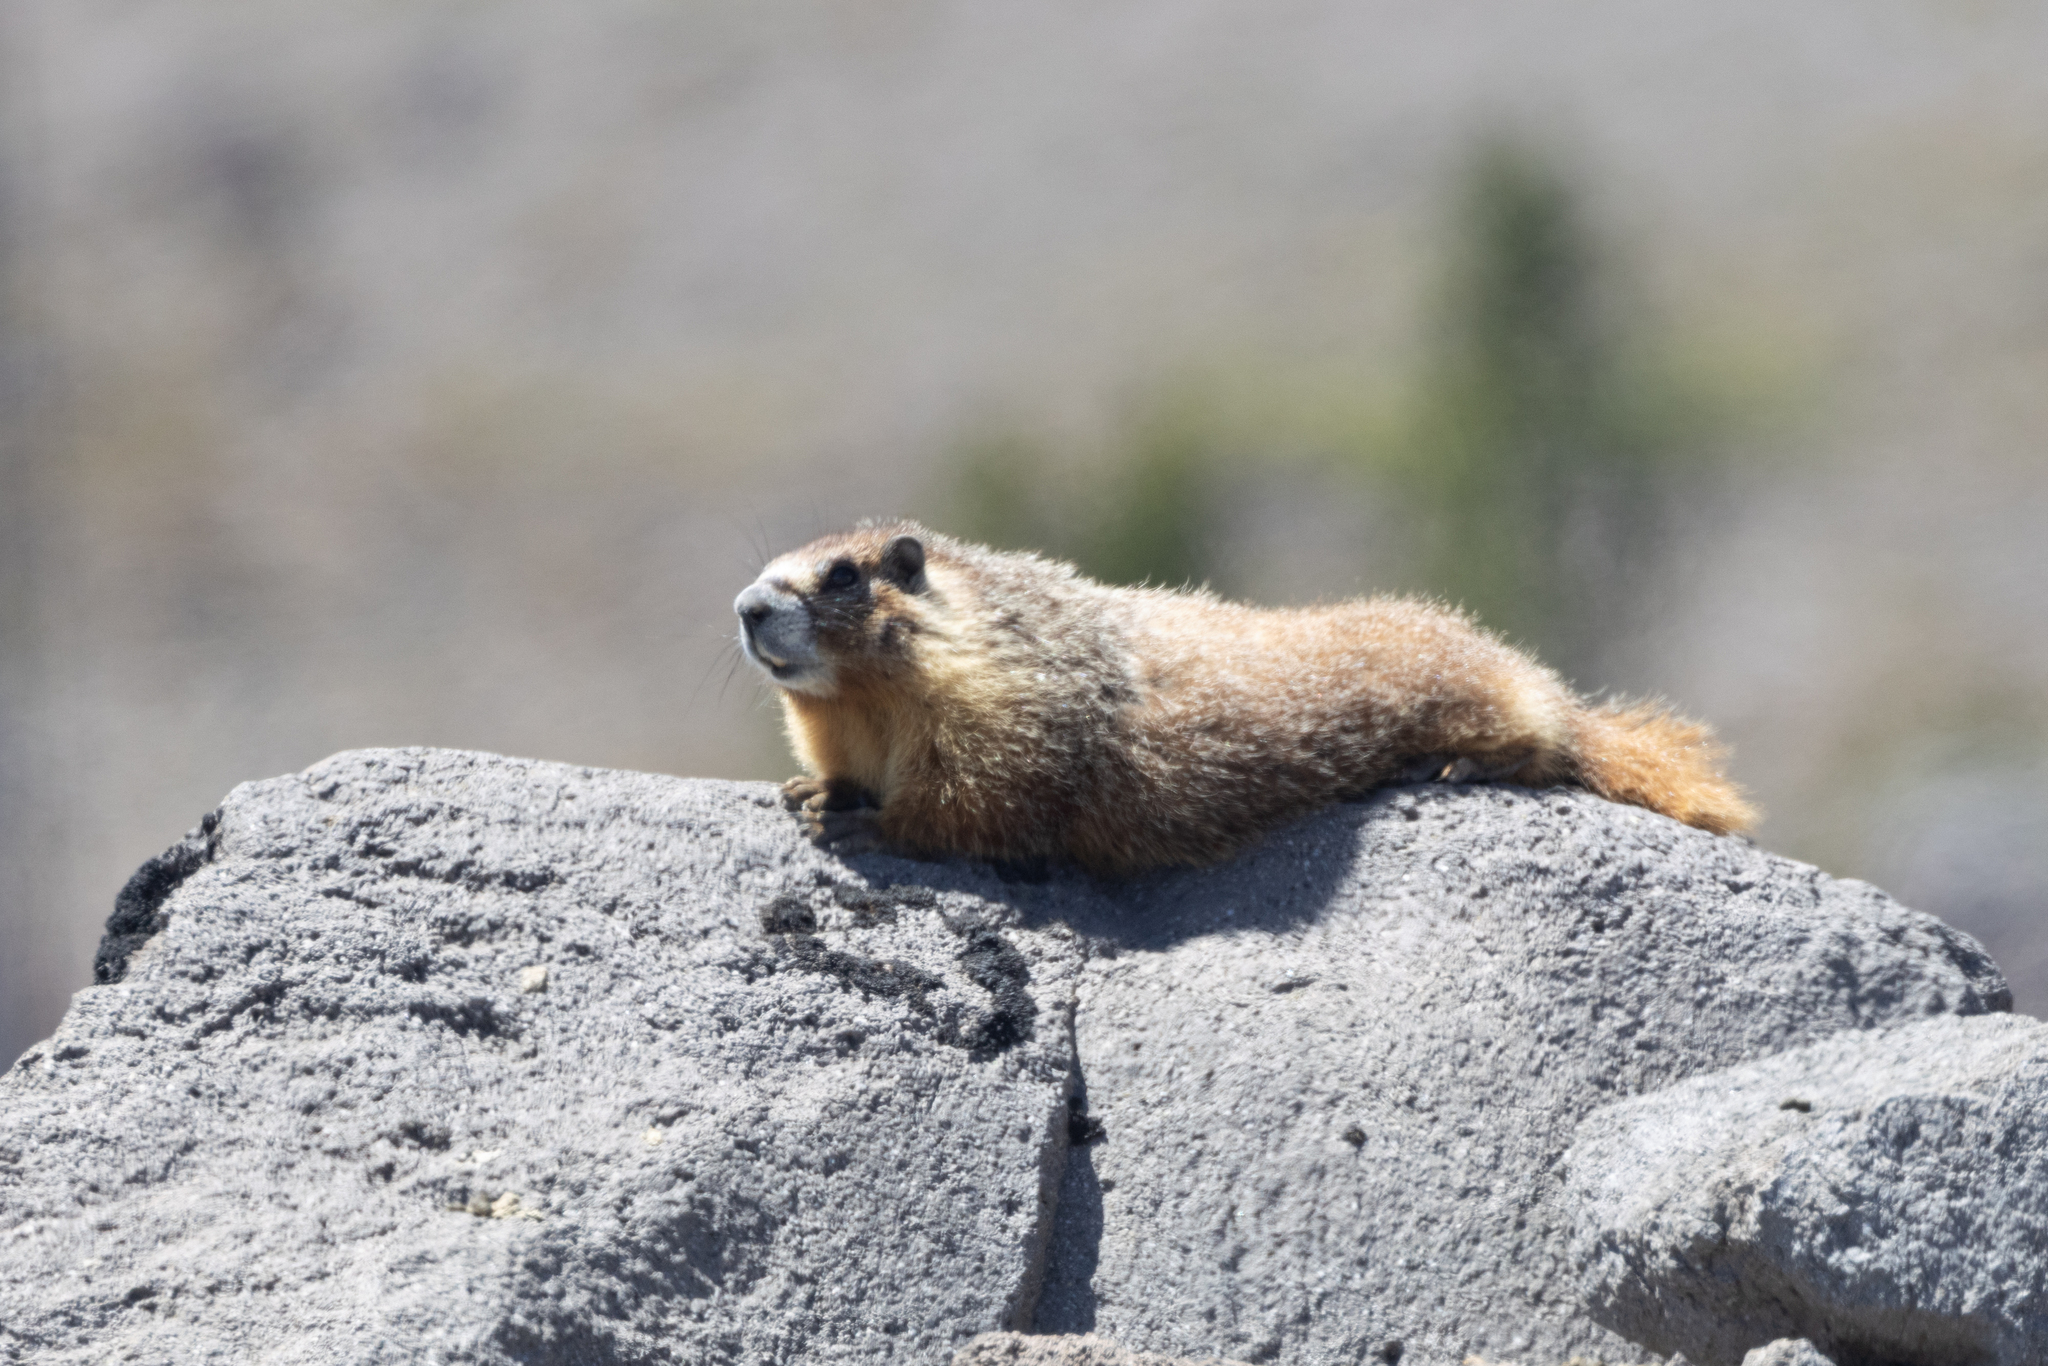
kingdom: Animalia
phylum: Chordata
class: Mammalia
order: Rodentia
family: Sciuridae
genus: Marmota
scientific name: Marmota flaviventris
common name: Yellow-bellied marmot
